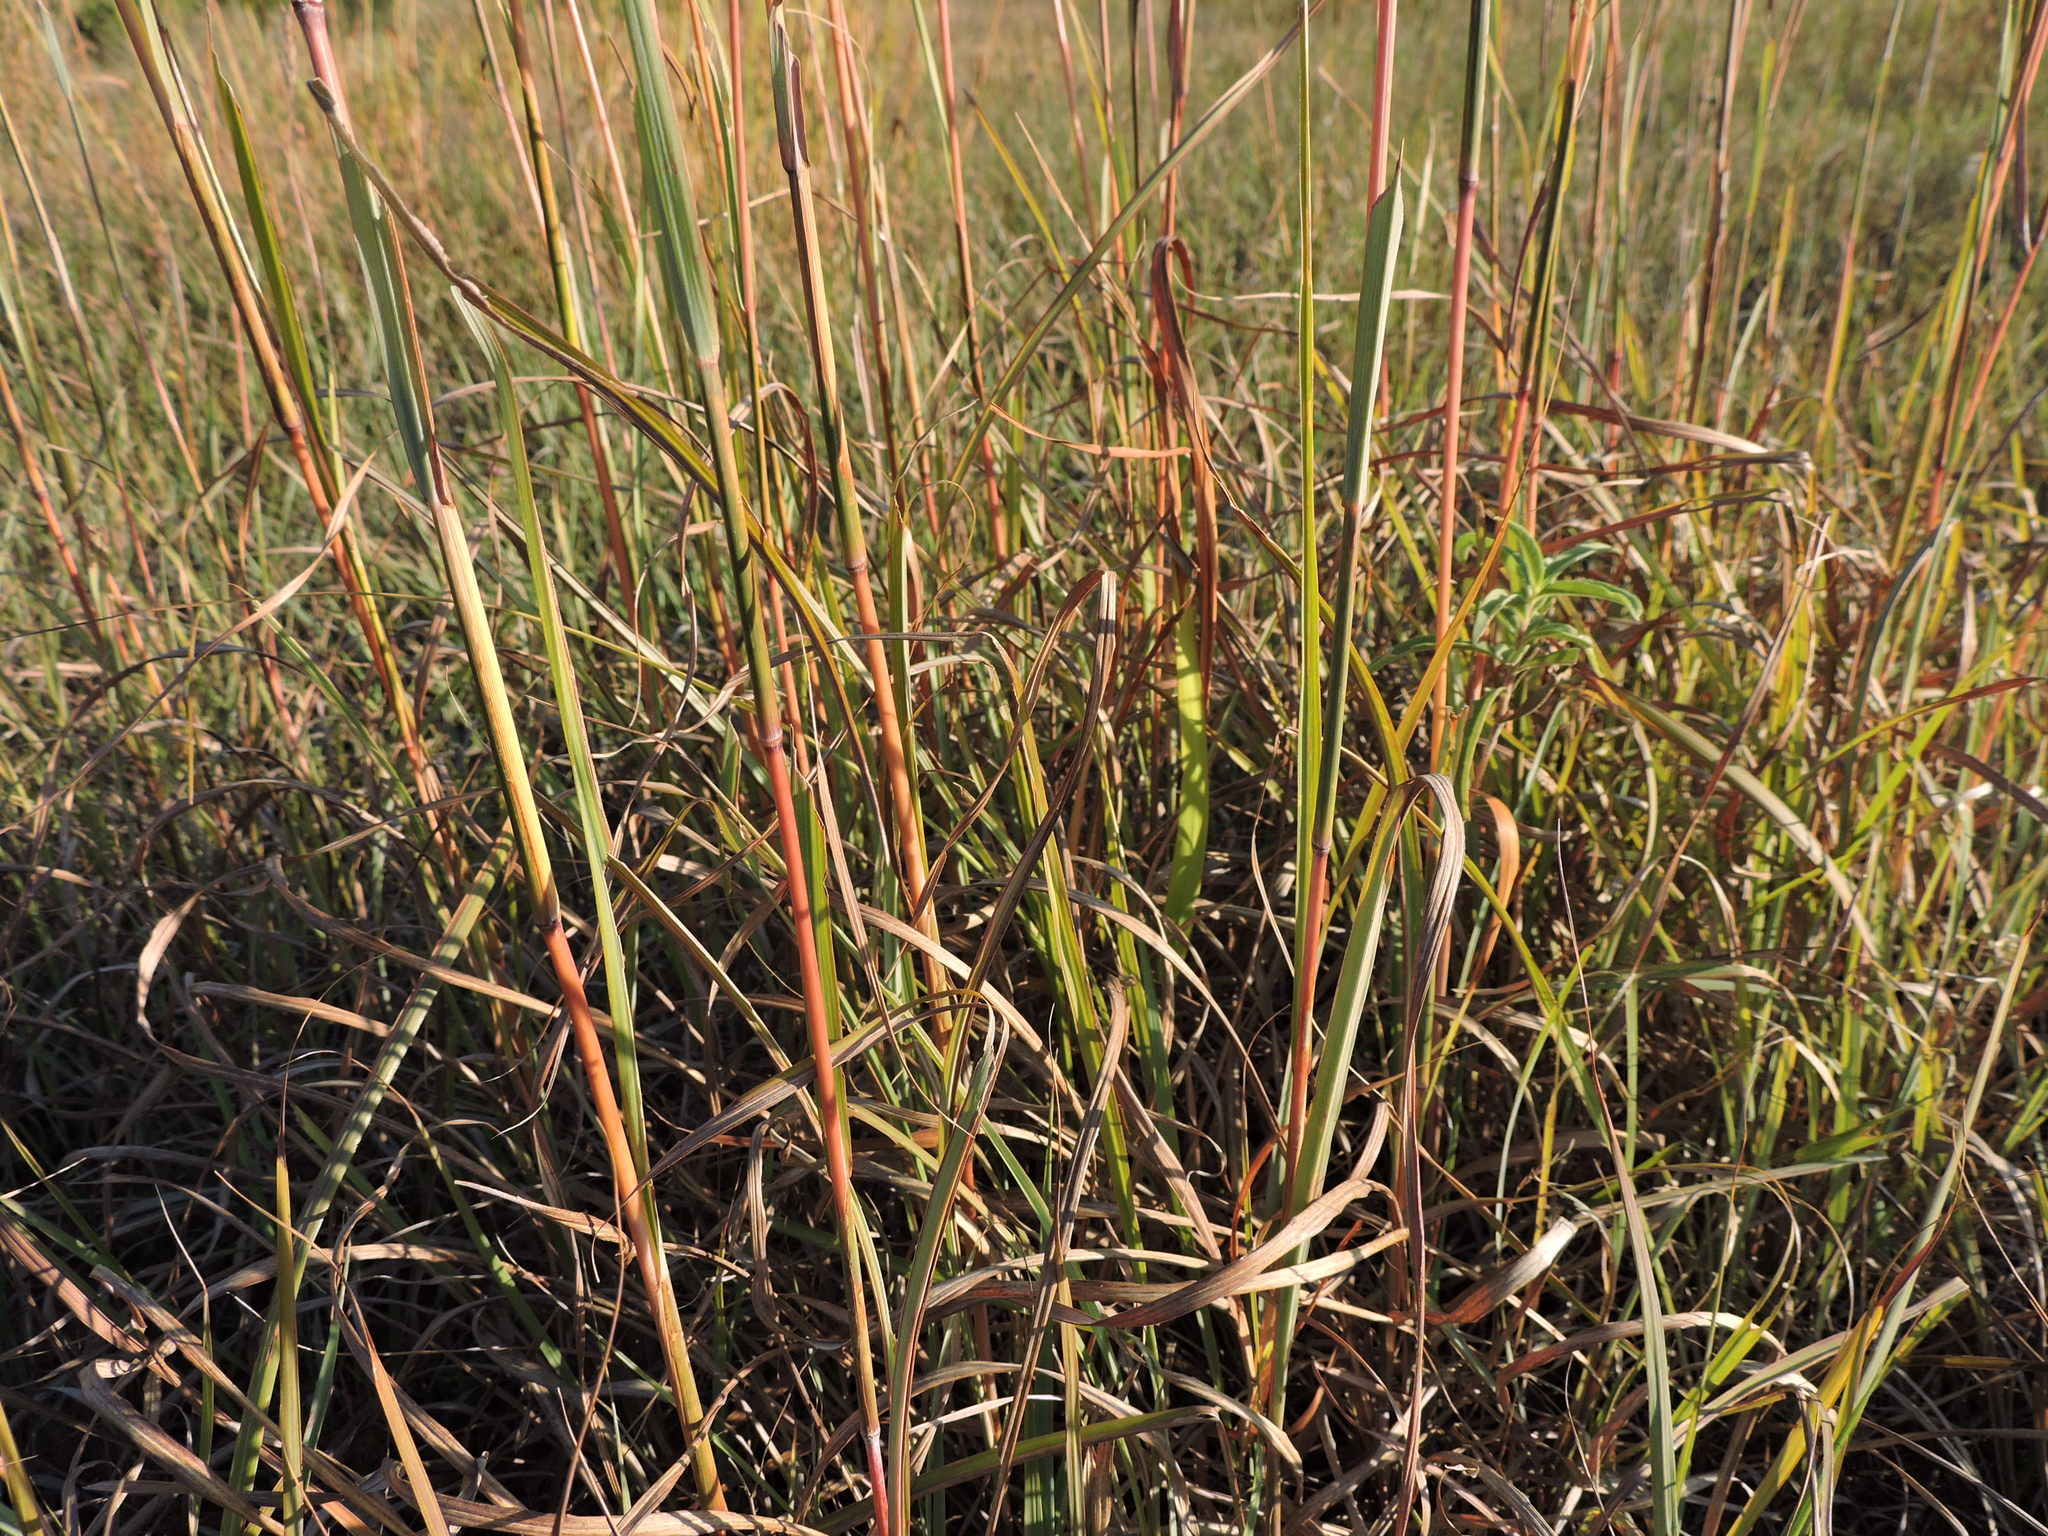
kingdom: Plantae
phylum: Tracheophyta
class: Liliopsida
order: Poales
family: Poaceae
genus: Andropogon
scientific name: Andropogon gerardi
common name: Big bluestem
